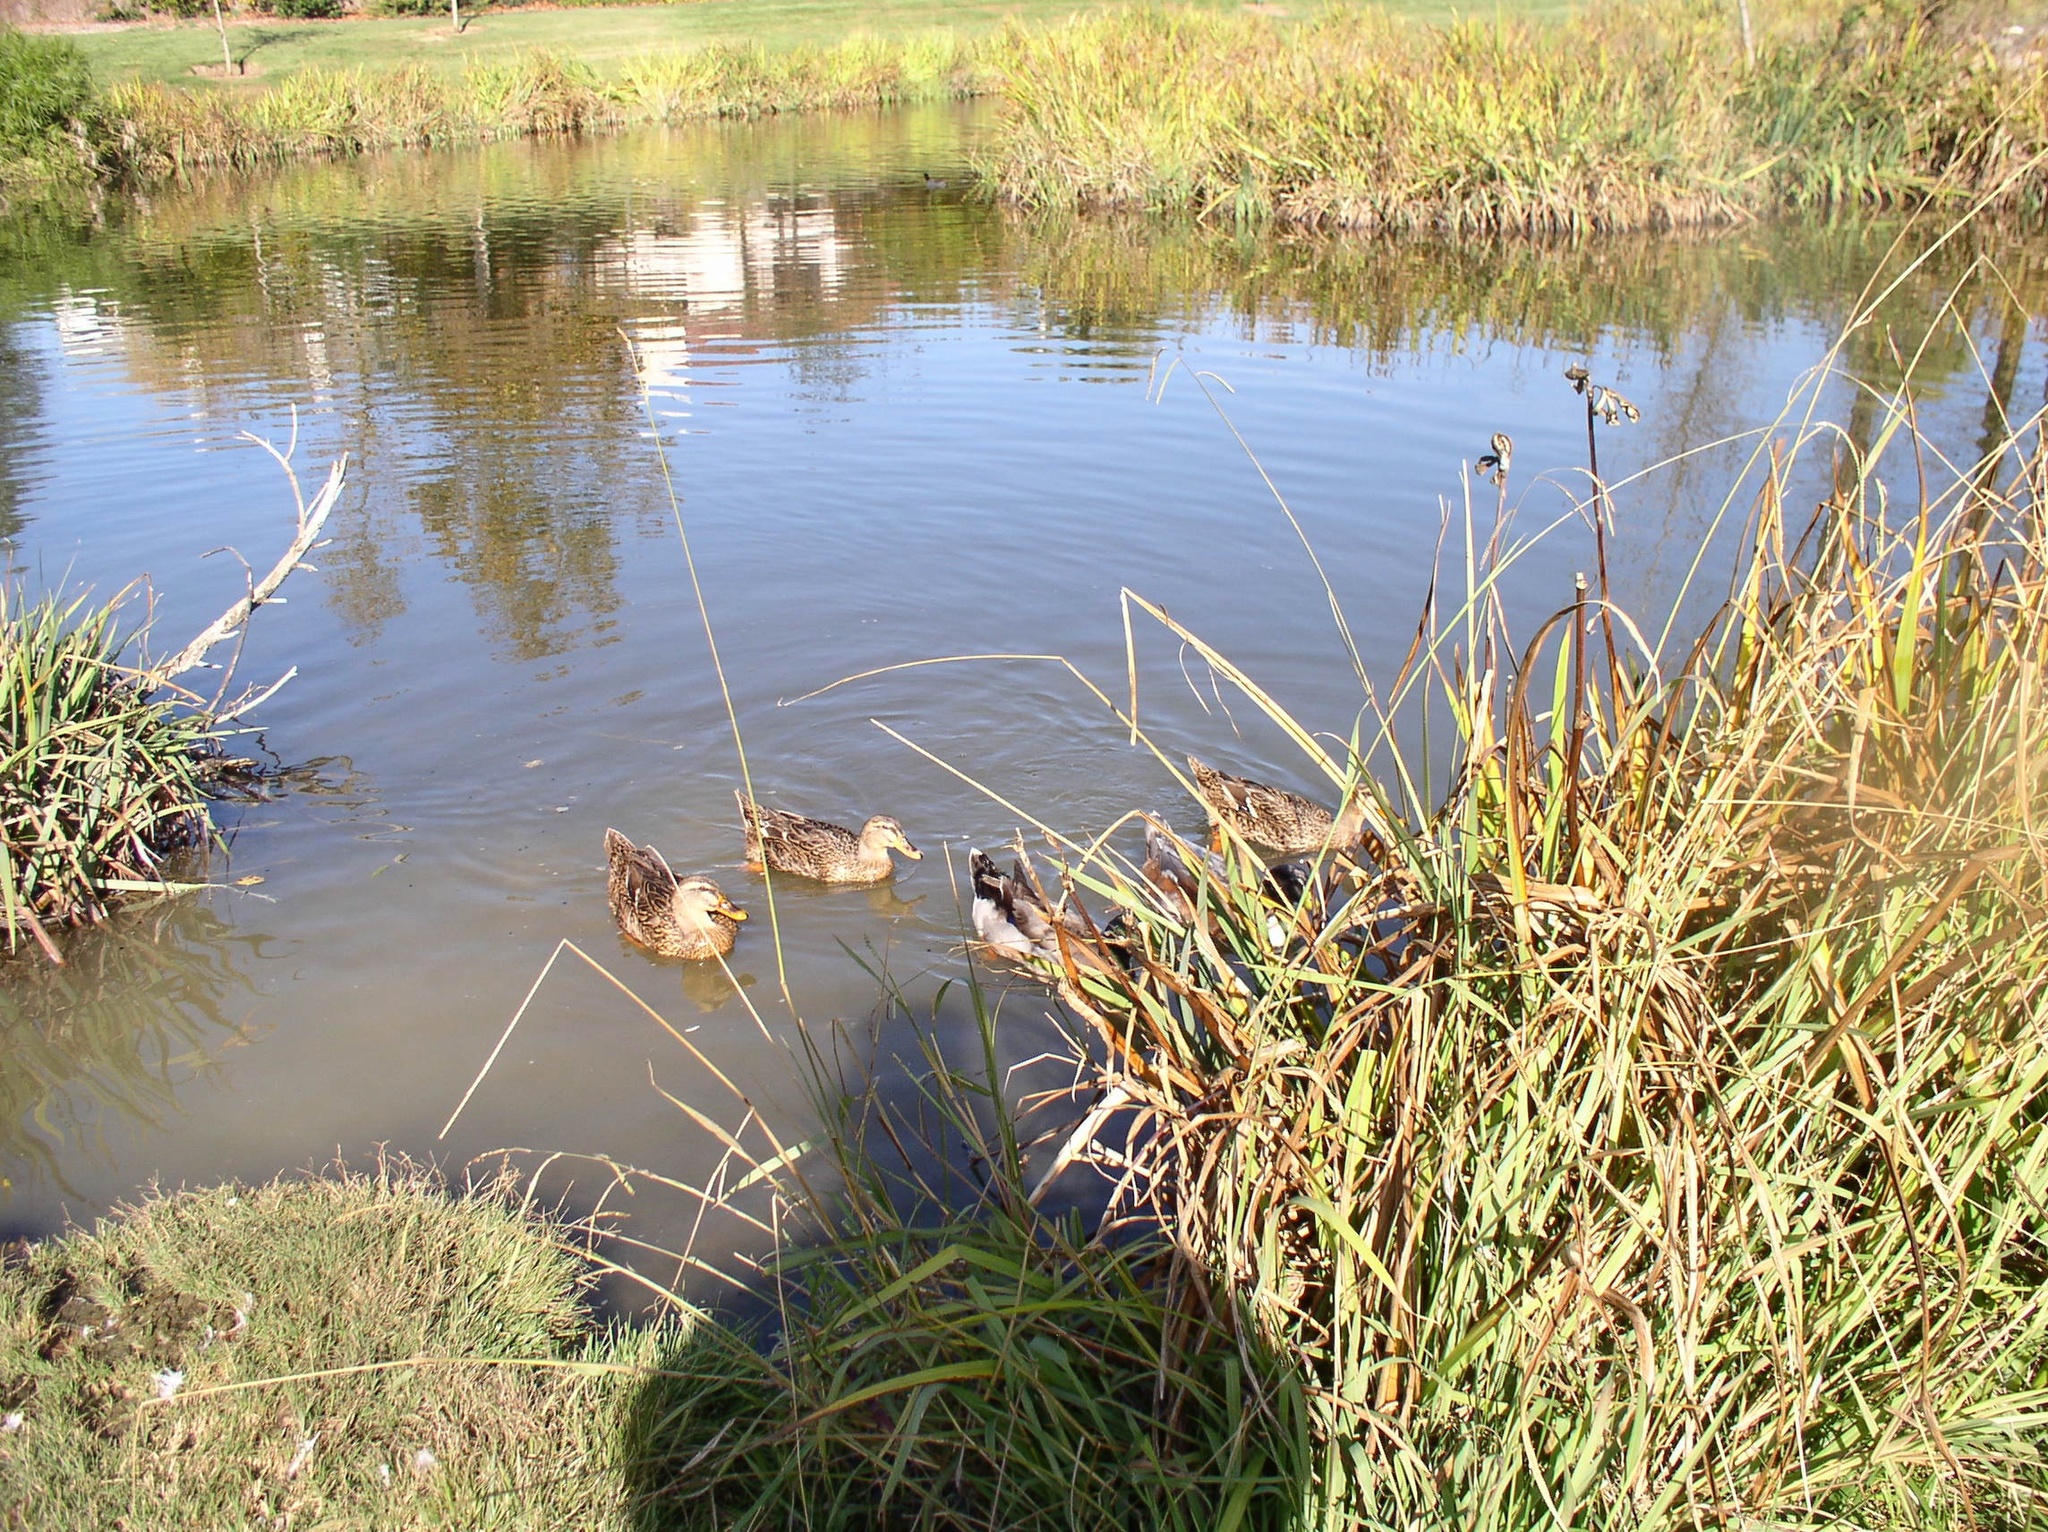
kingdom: Animalia
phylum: Chordata
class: Aves
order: Anseriformes
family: Anatidae
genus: Anas
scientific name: Anas platyrhynchos
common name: Mallard
